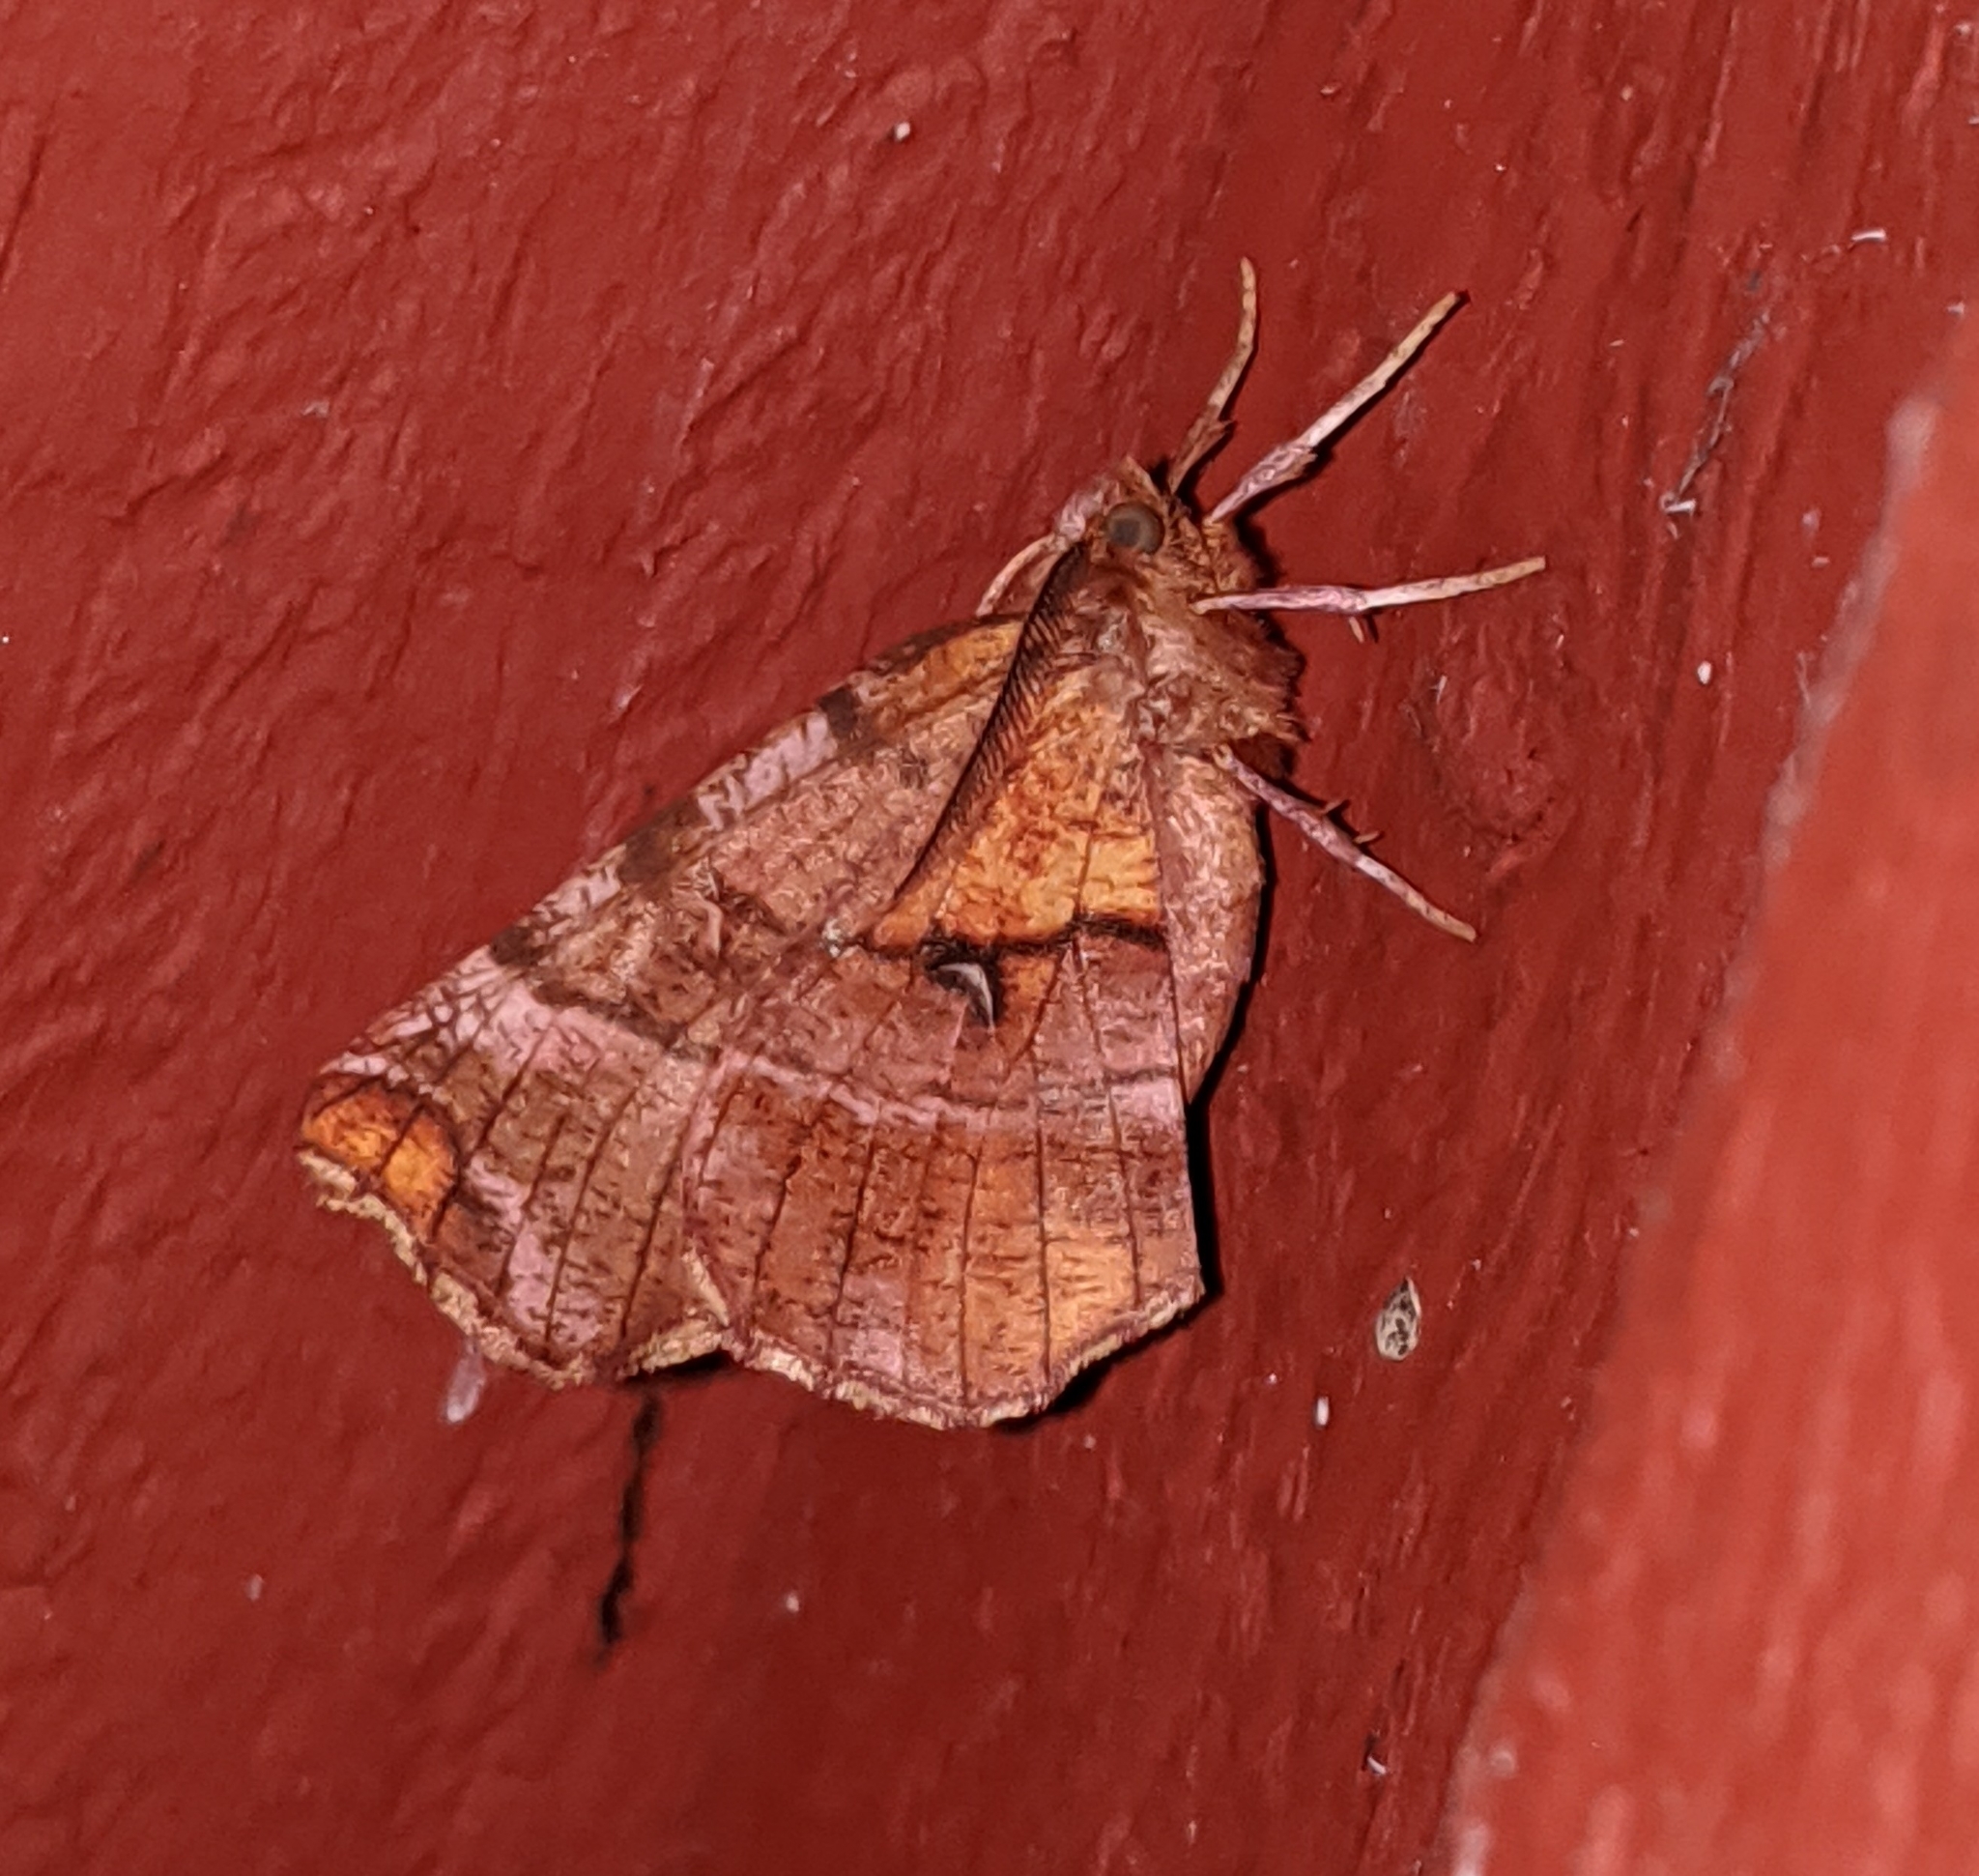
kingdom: Animalia
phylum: Arthropoda
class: Insecta
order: Lepidoptera
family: Geometridae
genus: Selenia
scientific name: Selenia alciphearia
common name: Brown-tipped thorn
